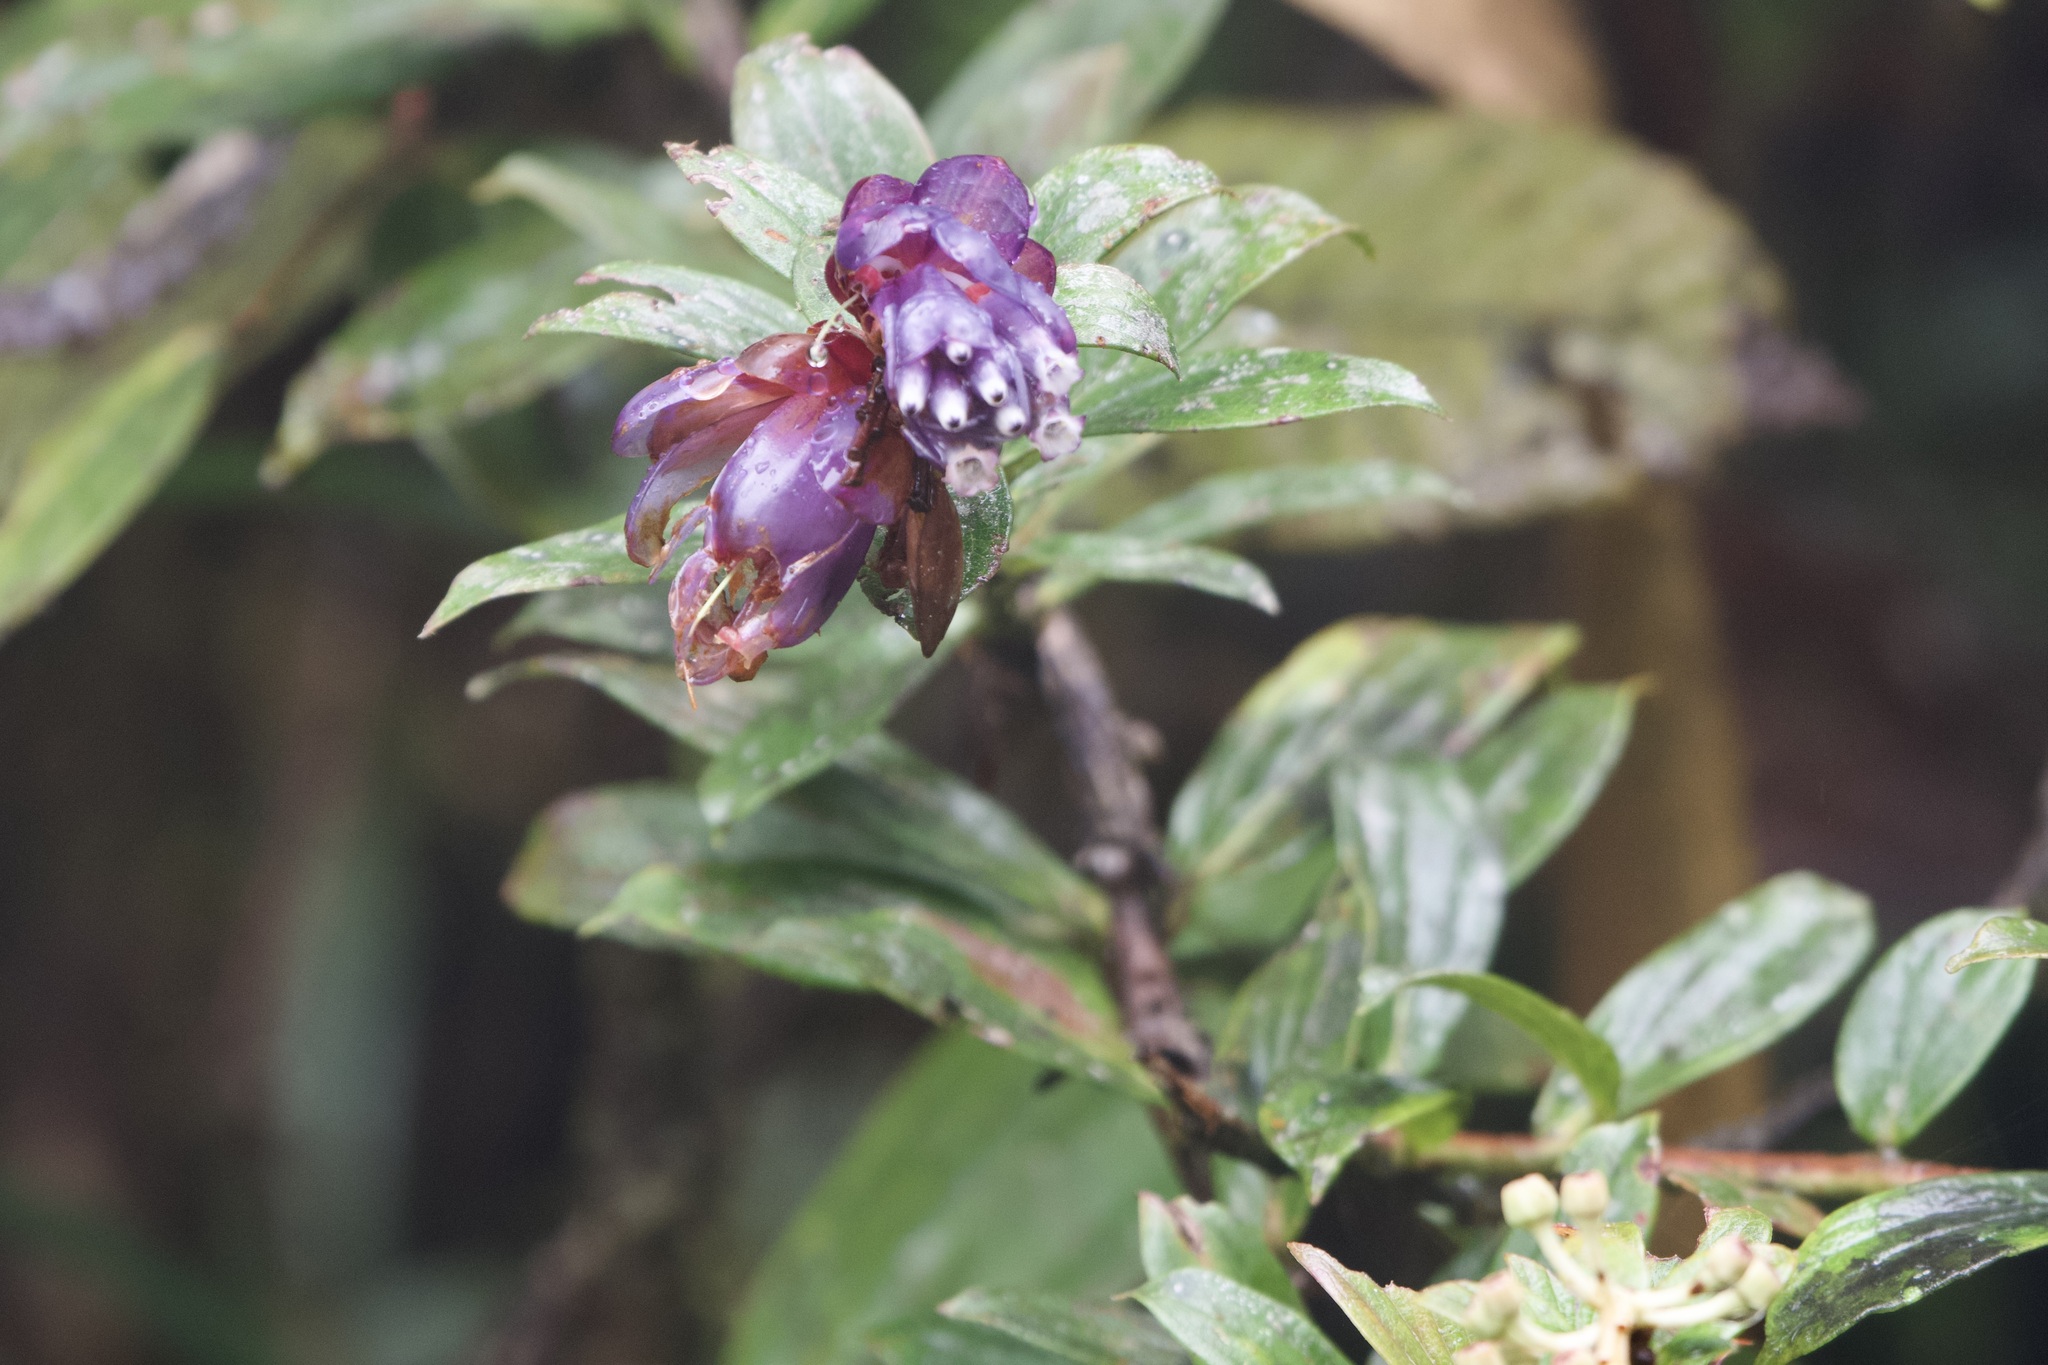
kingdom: Plantae
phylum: Tracheophyta
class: Magnoliopsida
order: Ericales
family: Ericaceae
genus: Cavendishia
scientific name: Cavendishia angustifolia
